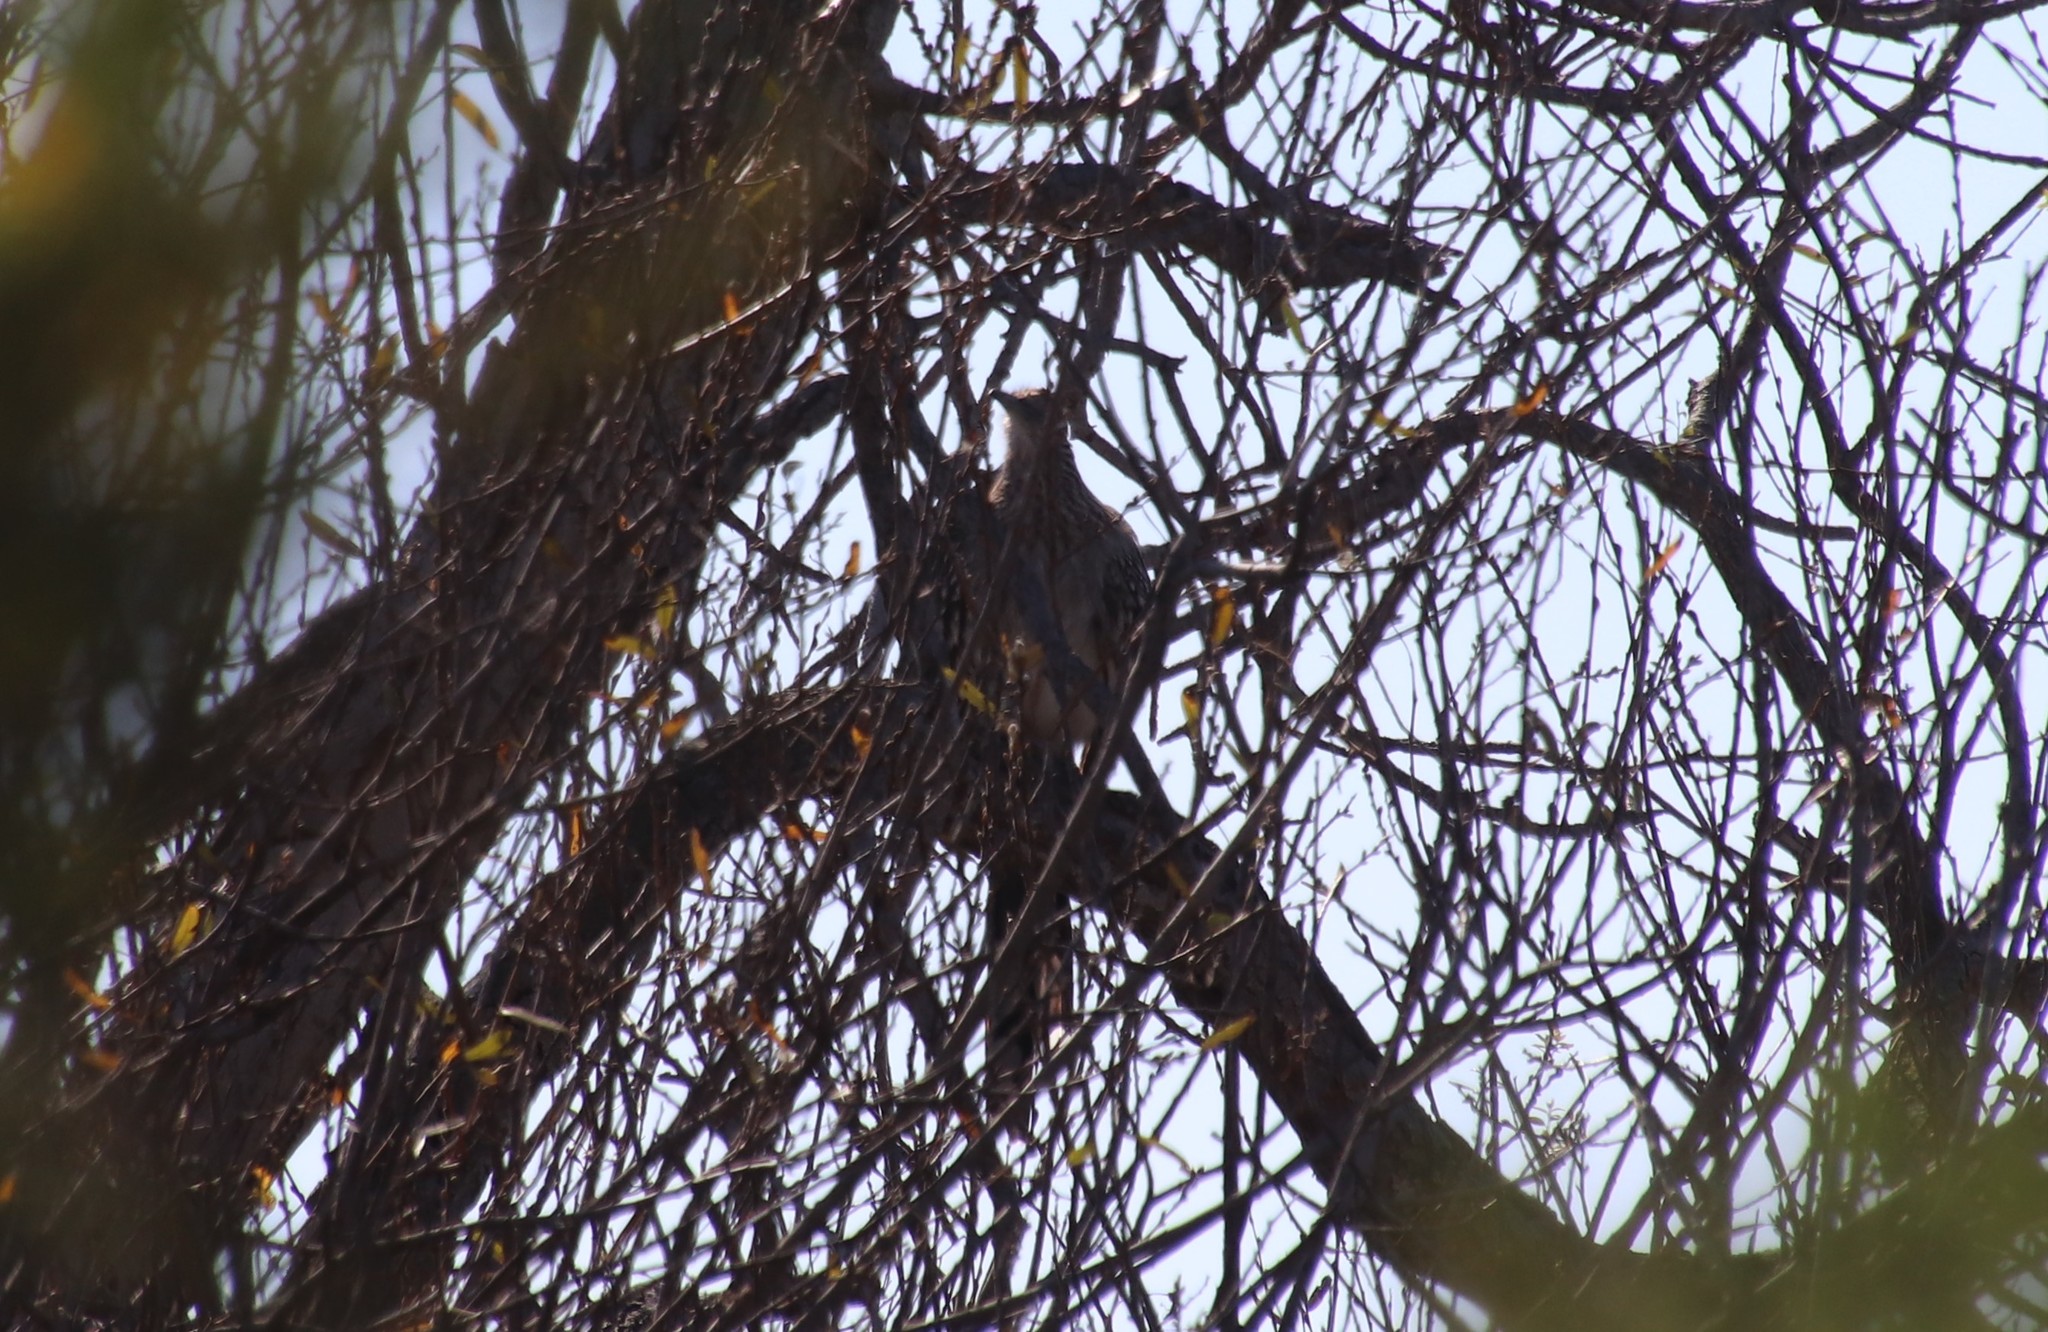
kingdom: Animalia
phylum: Chordata
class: Aves
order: Cuculiformes
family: Cuculidae
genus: Geococcyx
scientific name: Geococcyx californianus
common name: Greater roadrunner
